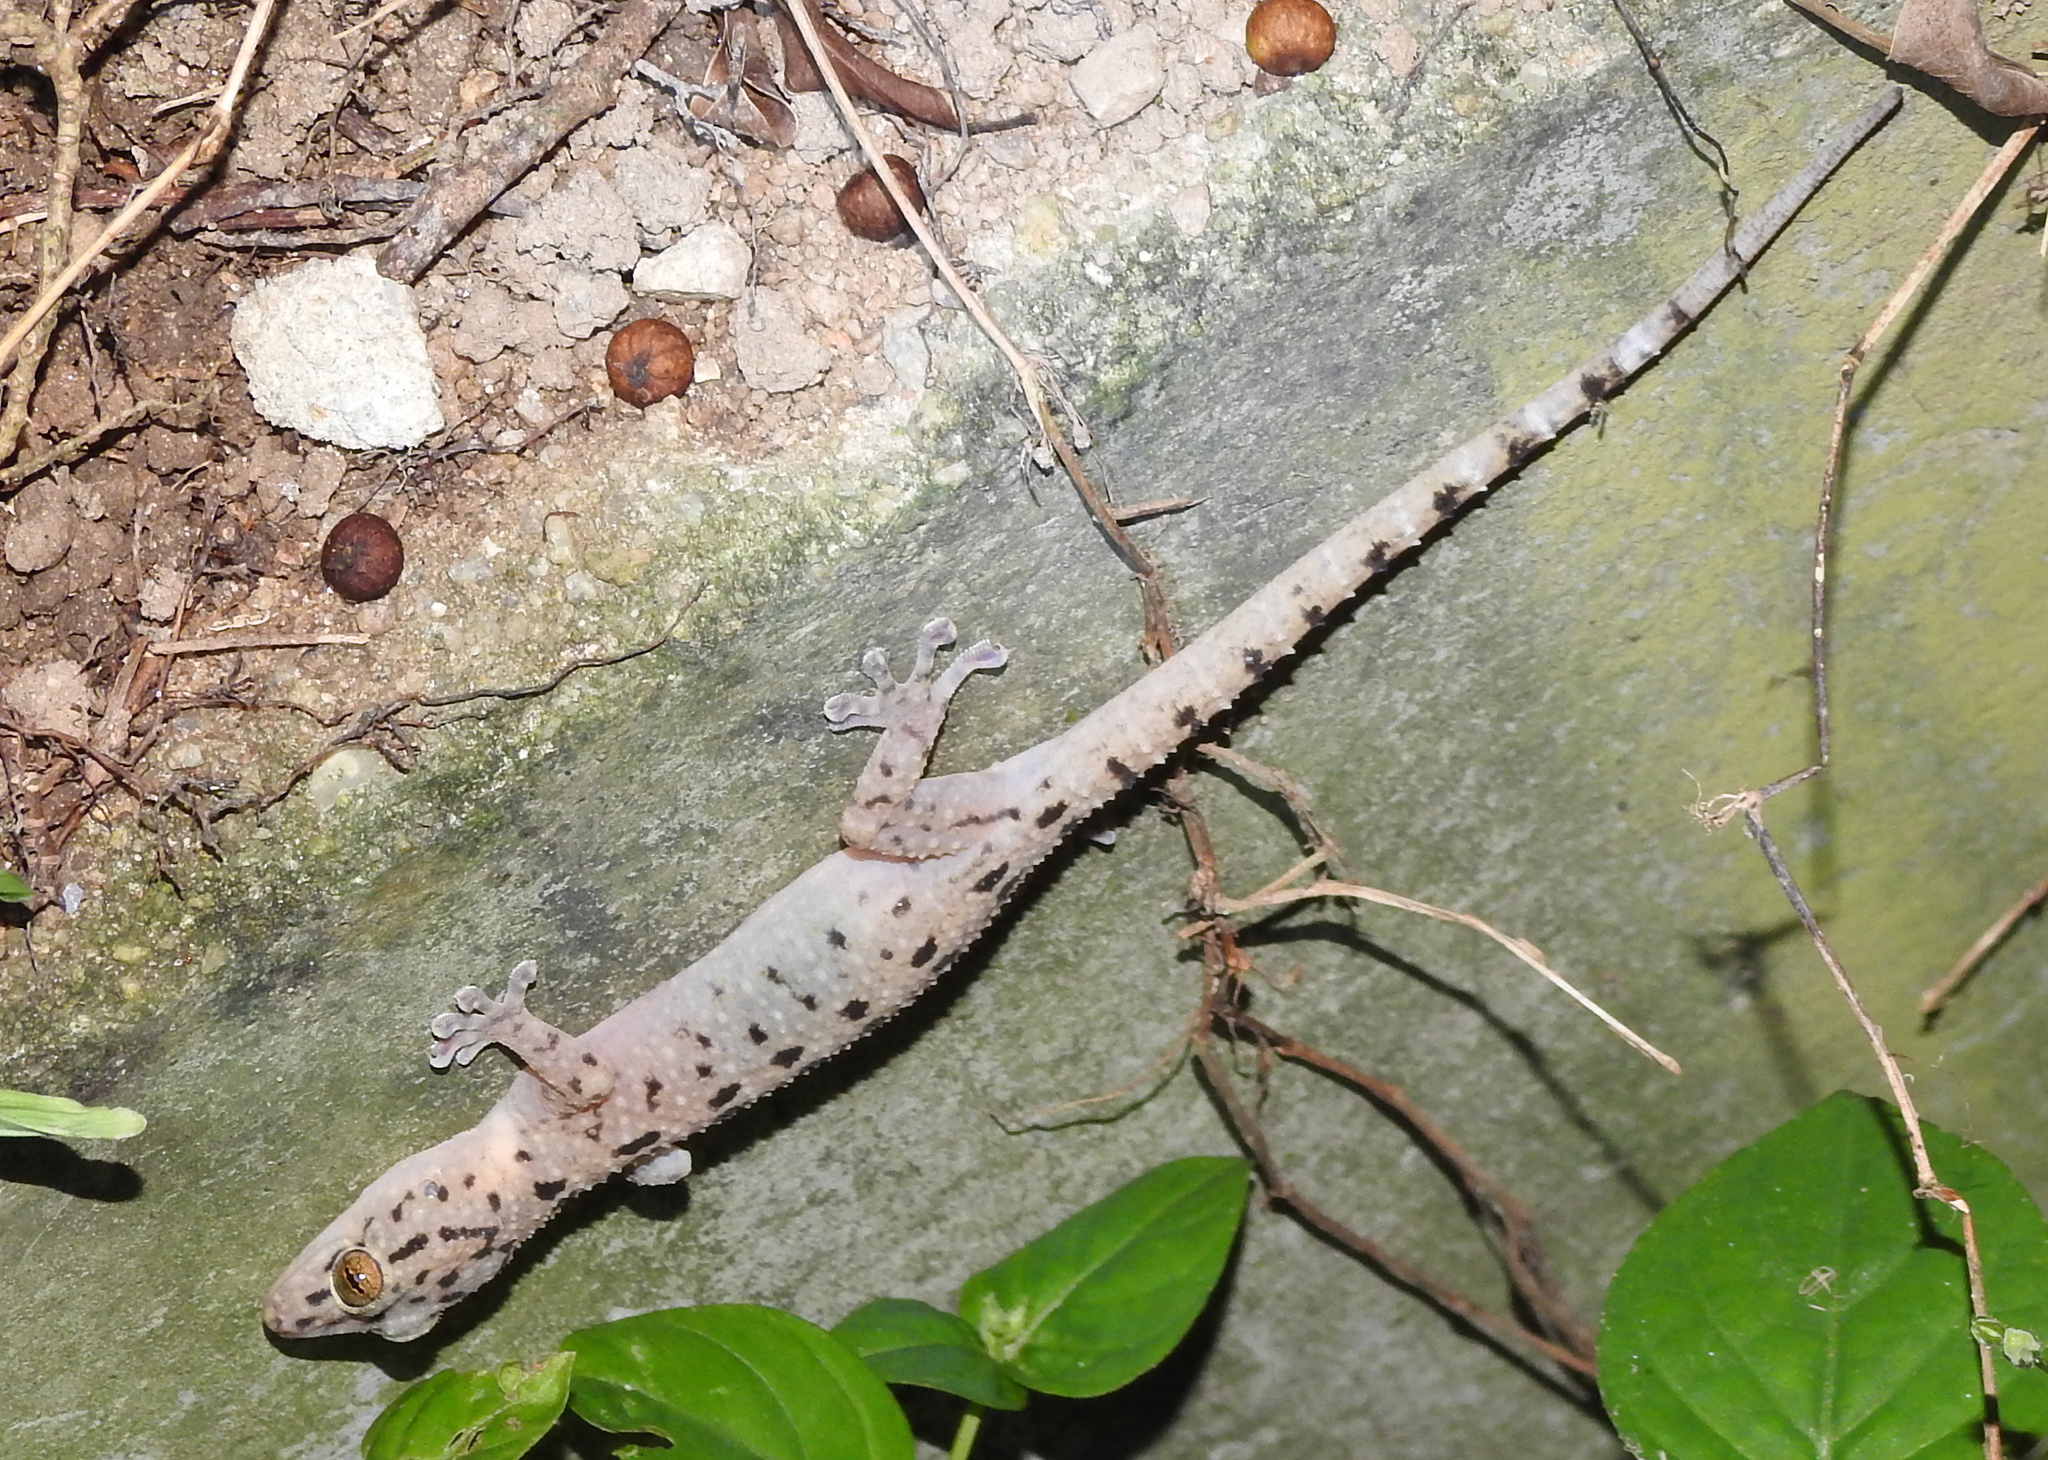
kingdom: Animalia
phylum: Chordata
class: Squamata
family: Gekkonidae
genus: Gekko
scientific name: Gekko monarchus
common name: Spotted house gecko
